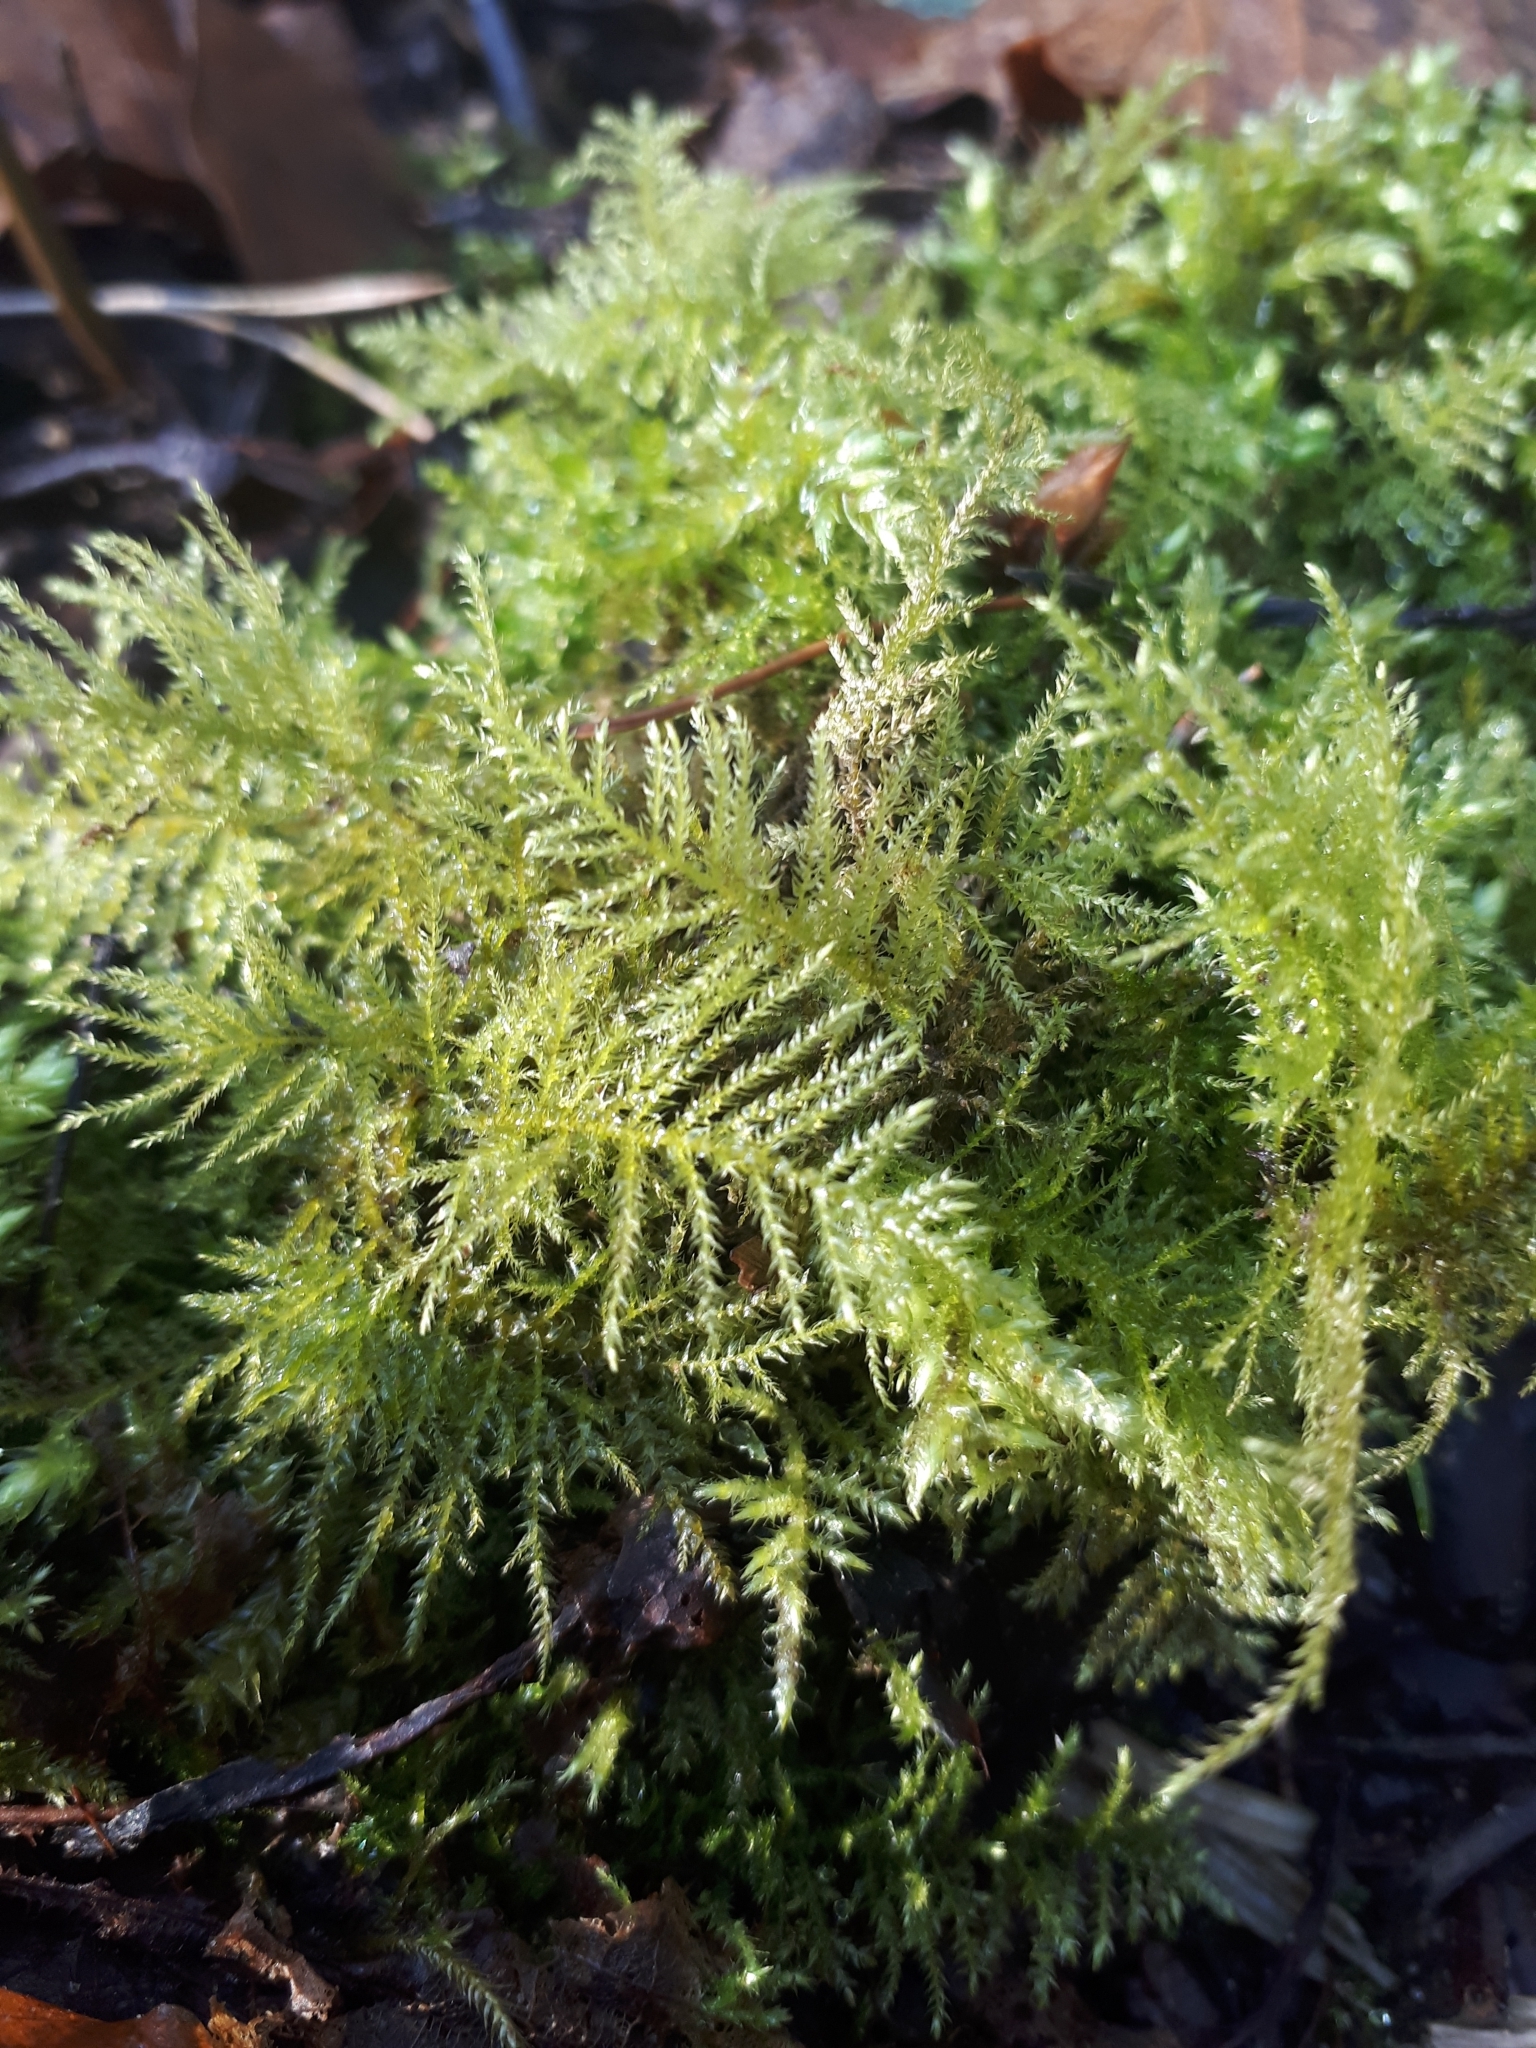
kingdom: Plantae
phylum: Bryophyta
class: Bryopsida
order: Hypnales
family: Brachytheciaceae
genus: Kindbergia
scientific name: Kindbergia praelonga
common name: Slender beaked moss
